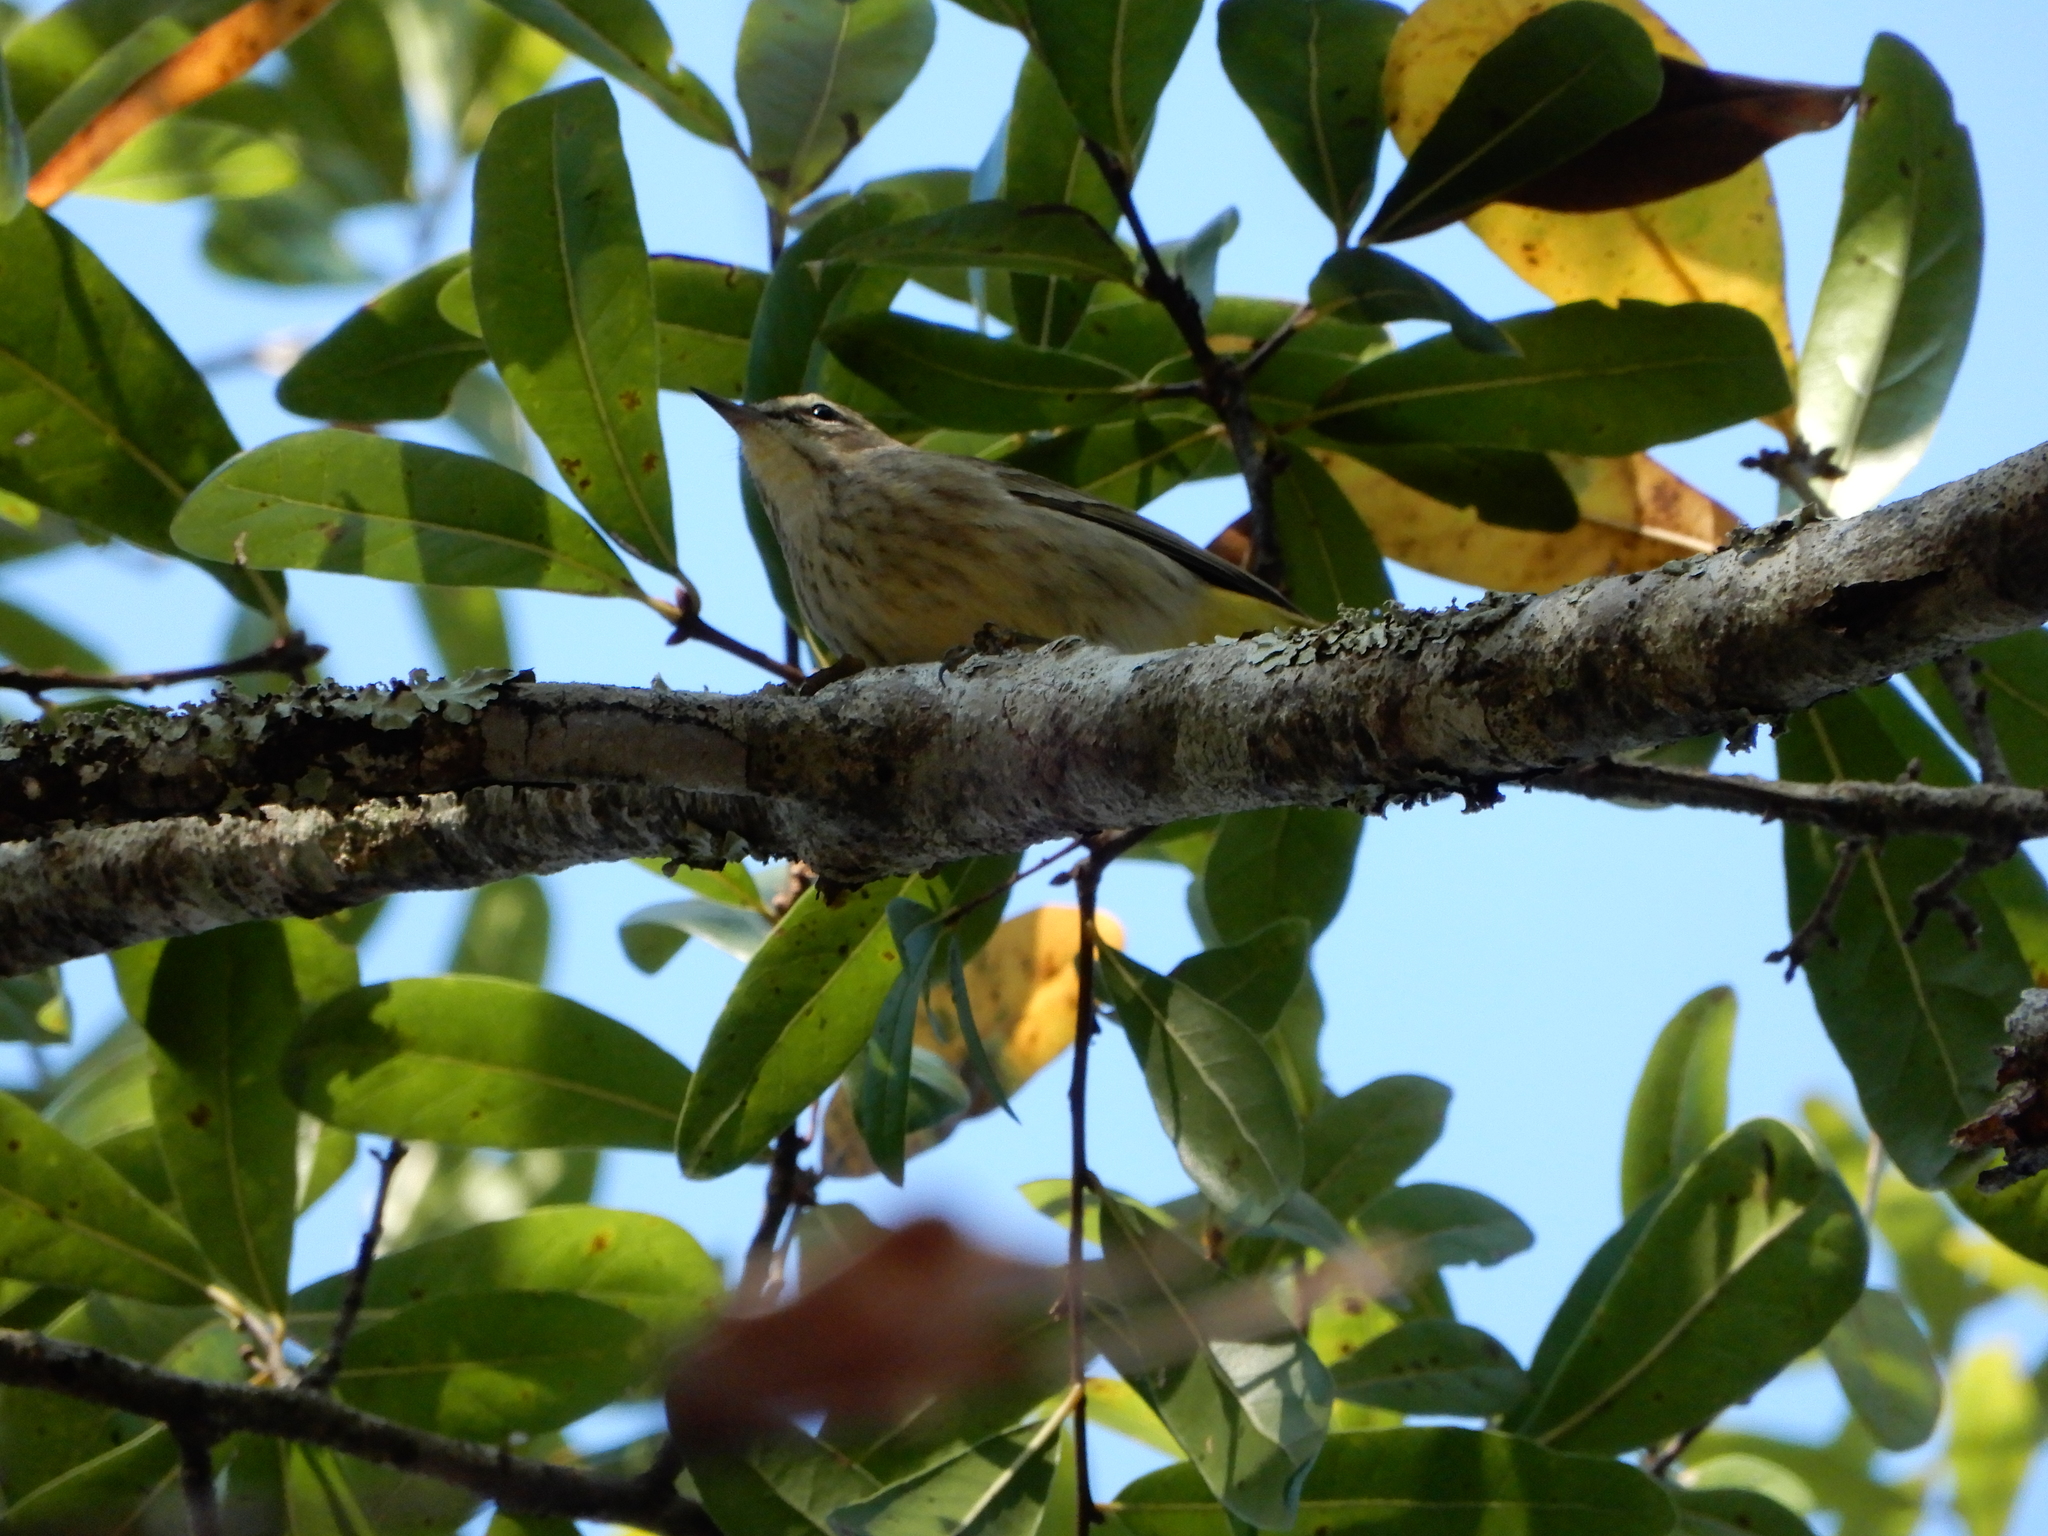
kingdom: Animalia
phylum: Chordata
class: Aves
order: Passeriformes
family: Parulidae
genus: Setophaga
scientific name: Setophaga palmarum
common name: Palm warbler
